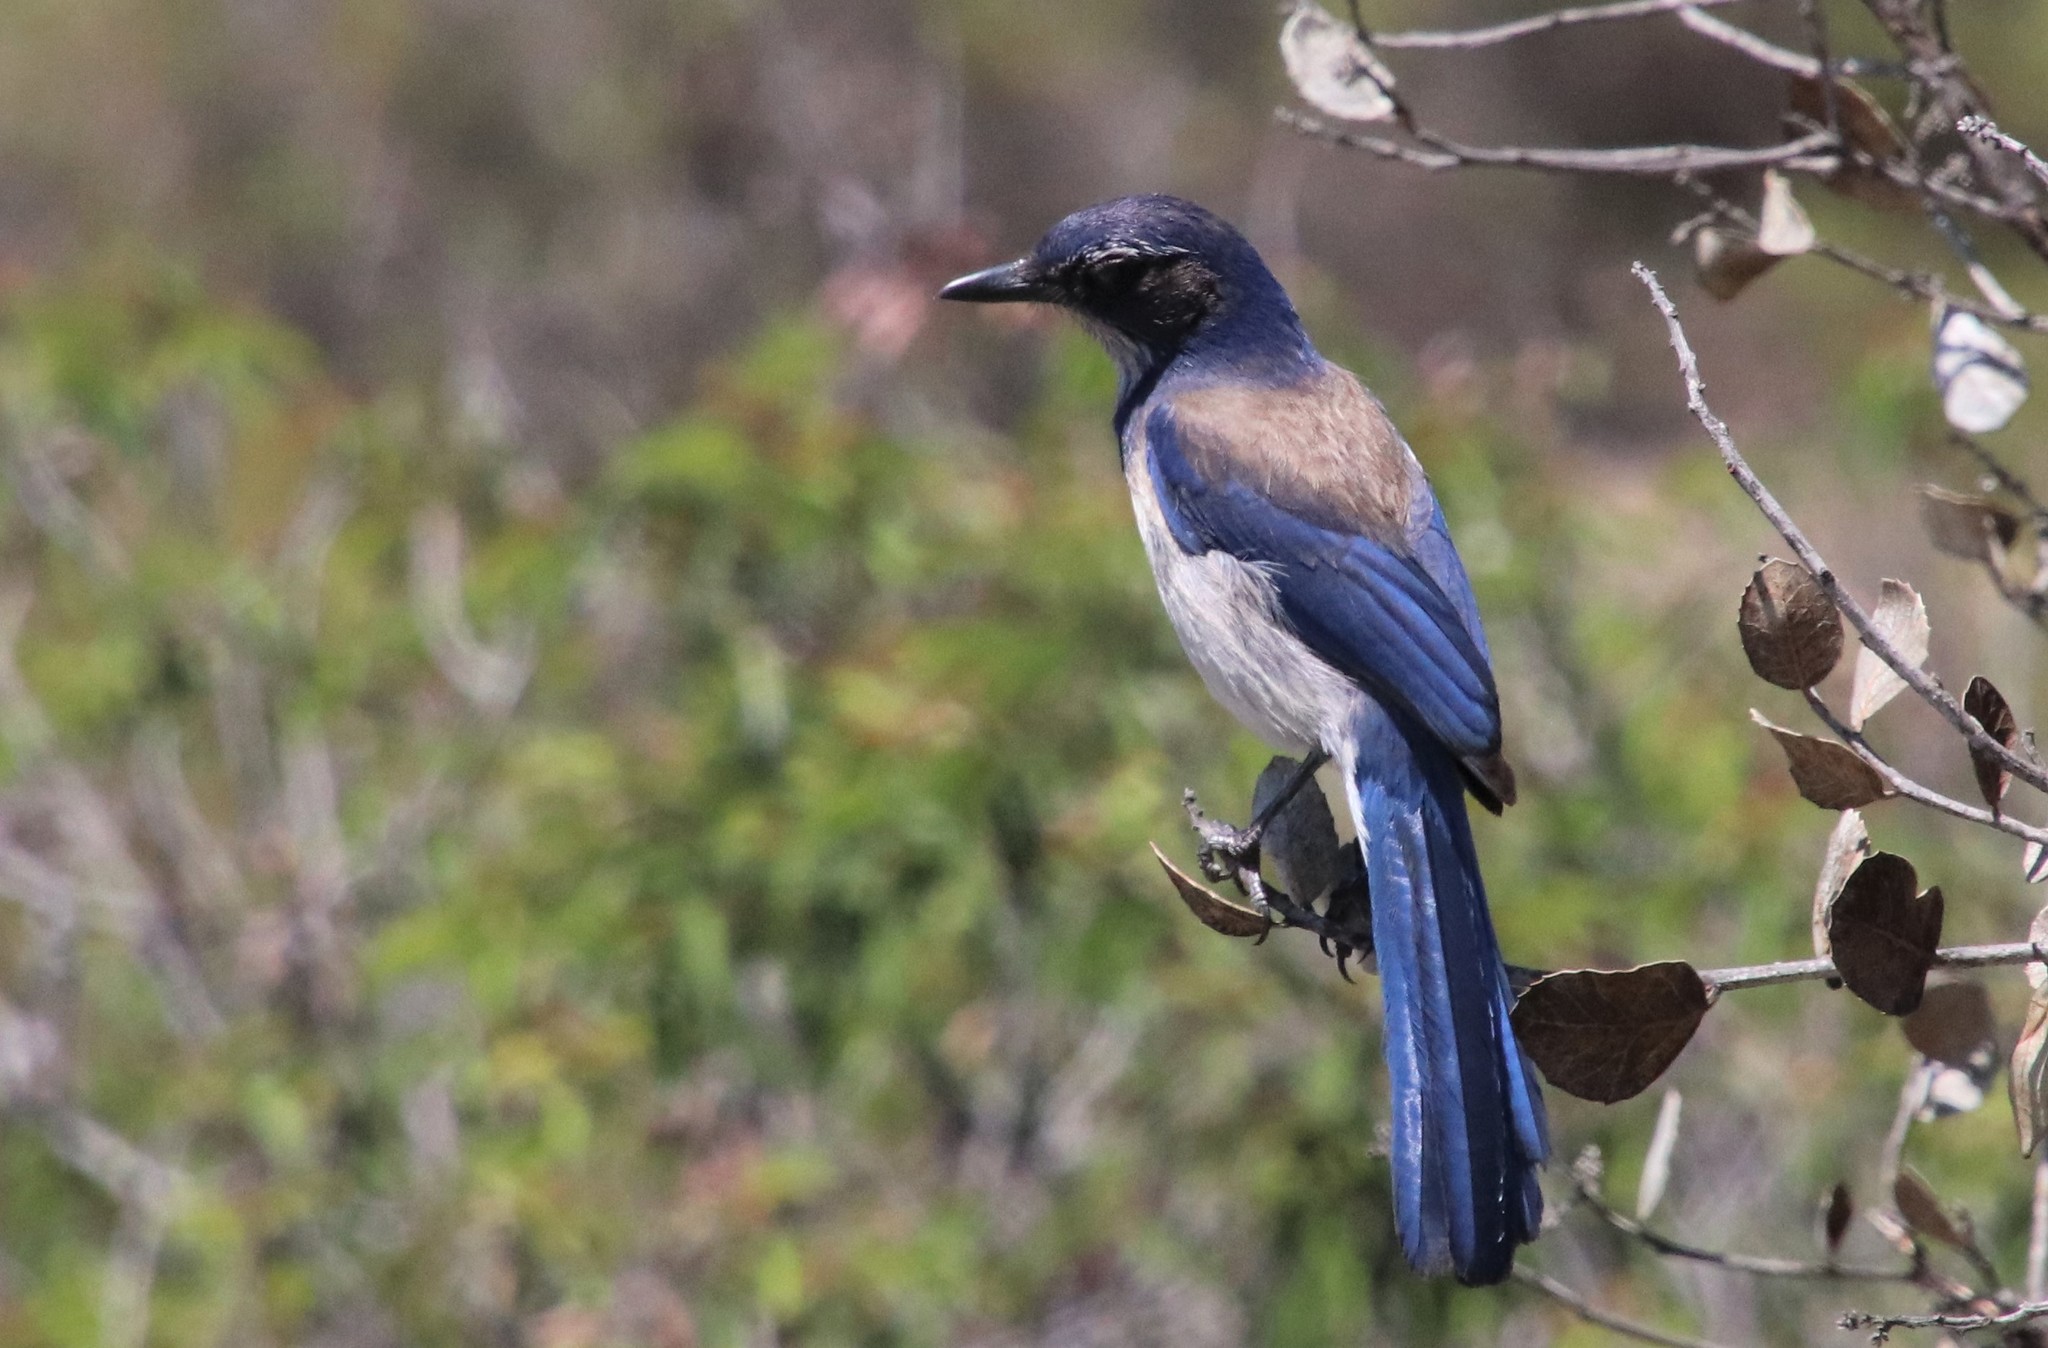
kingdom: Animalia
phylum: Chordata
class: Aves
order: Passeriformes
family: Corvidae
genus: Aphelocoma
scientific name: Aphelocoma californica
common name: California scrub-jay
